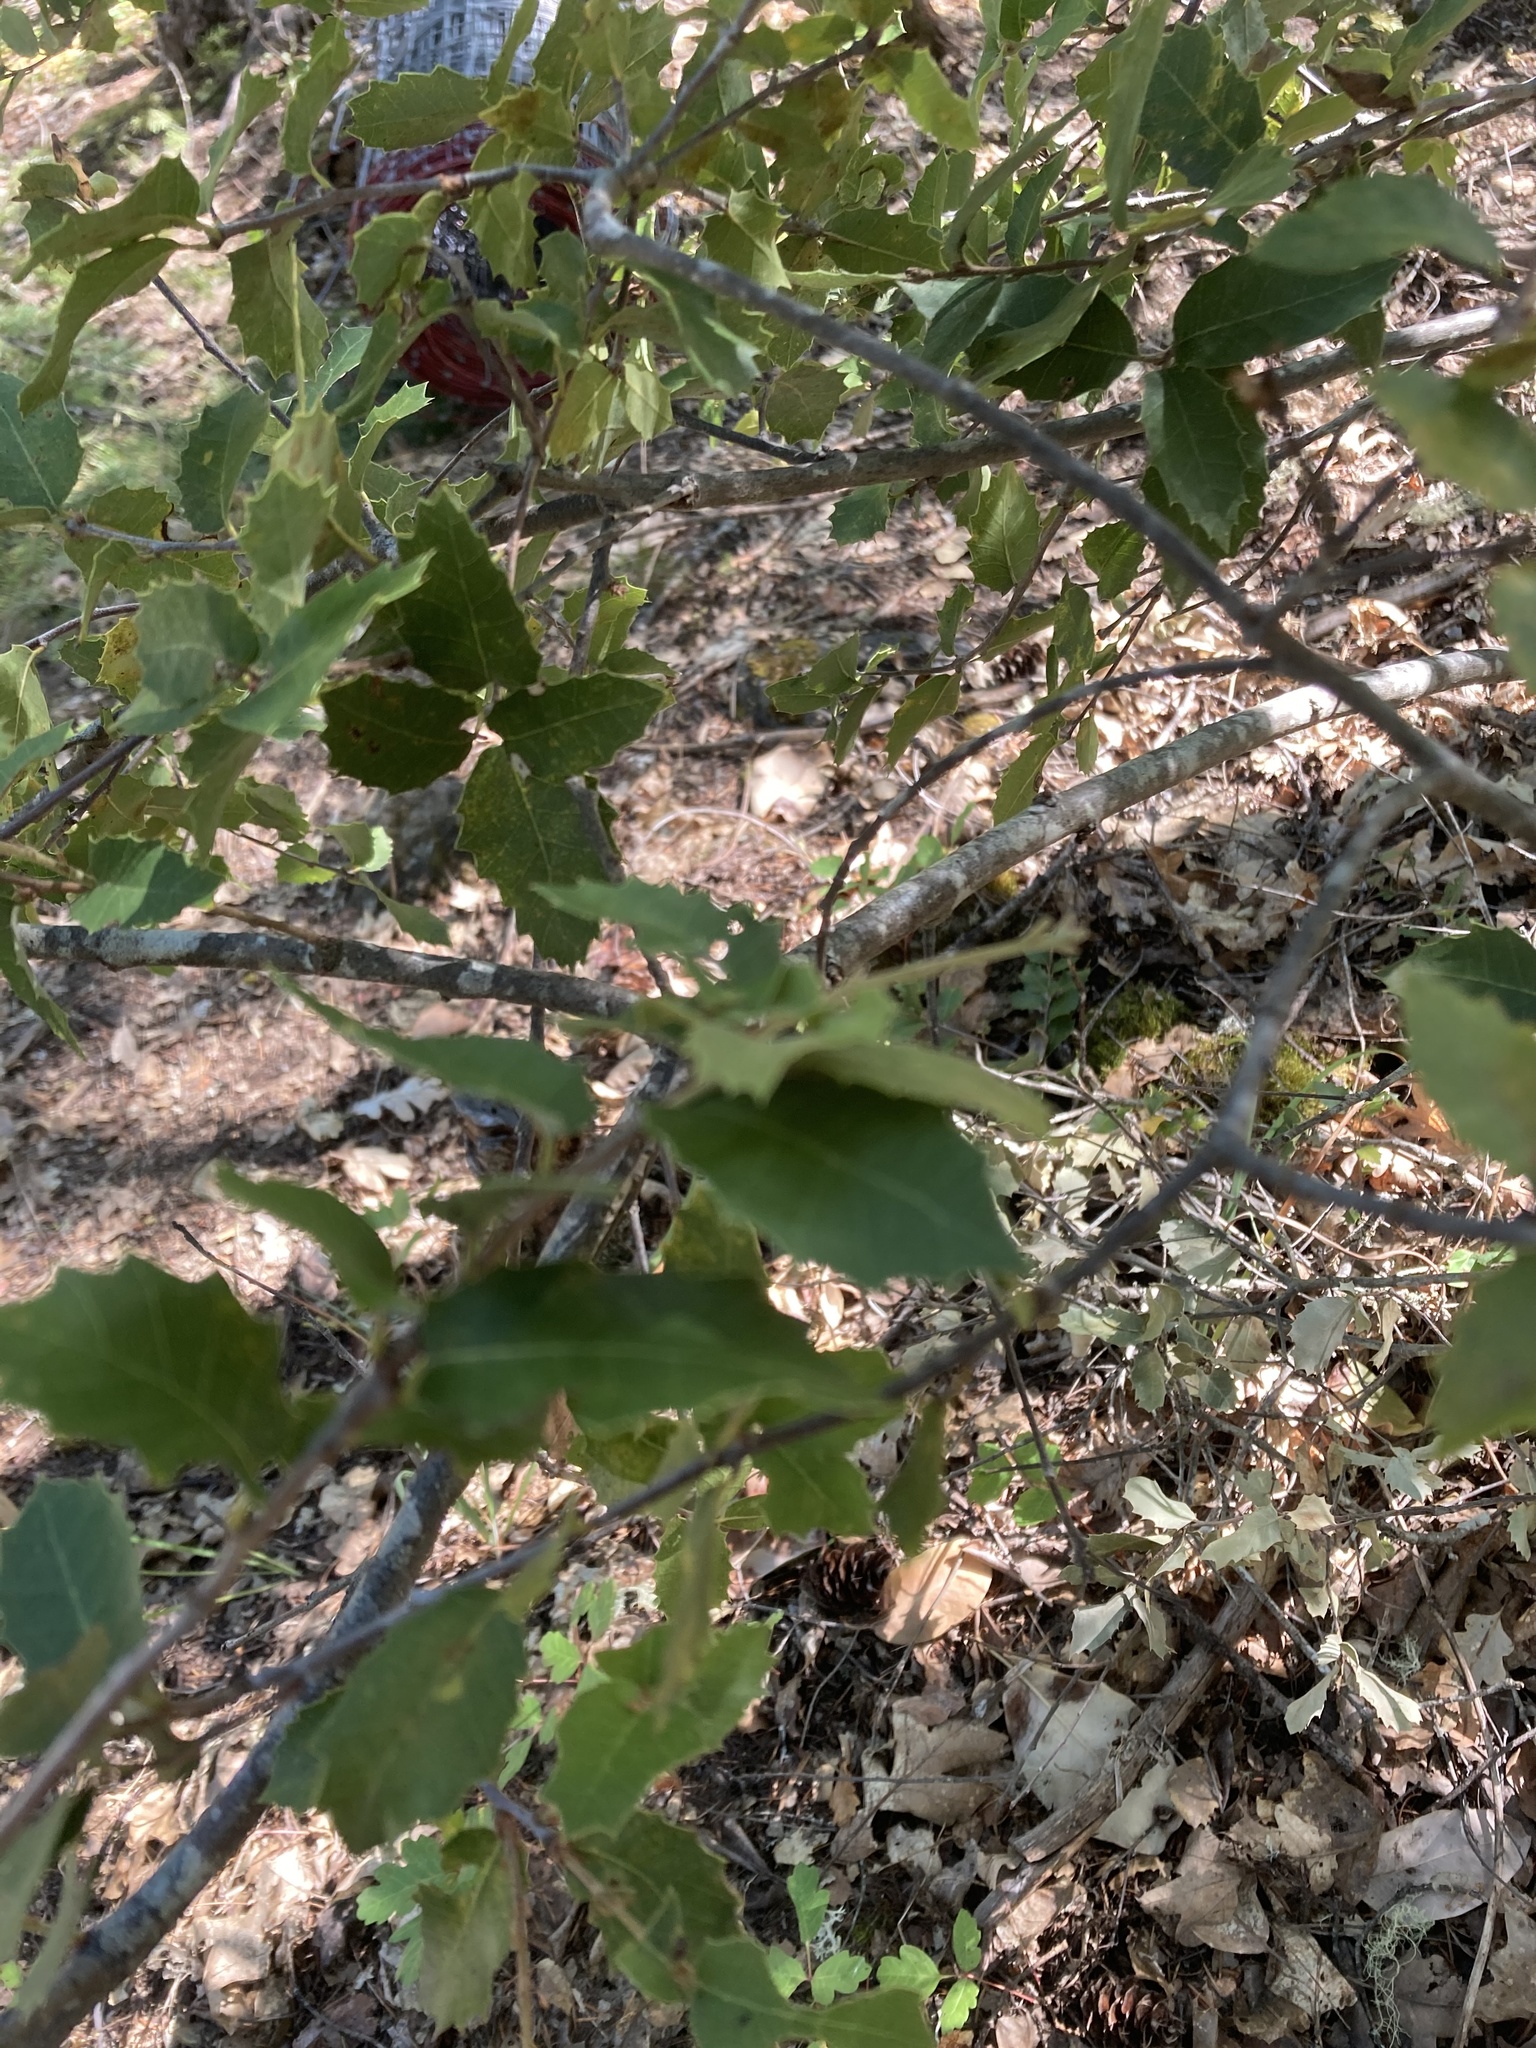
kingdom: Plantae
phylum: Tracheophyta
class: Magnoliopsida
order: Fagales
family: Fagaceae
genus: Quercus
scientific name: Quercus chrysolepis
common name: Canyon live oak
